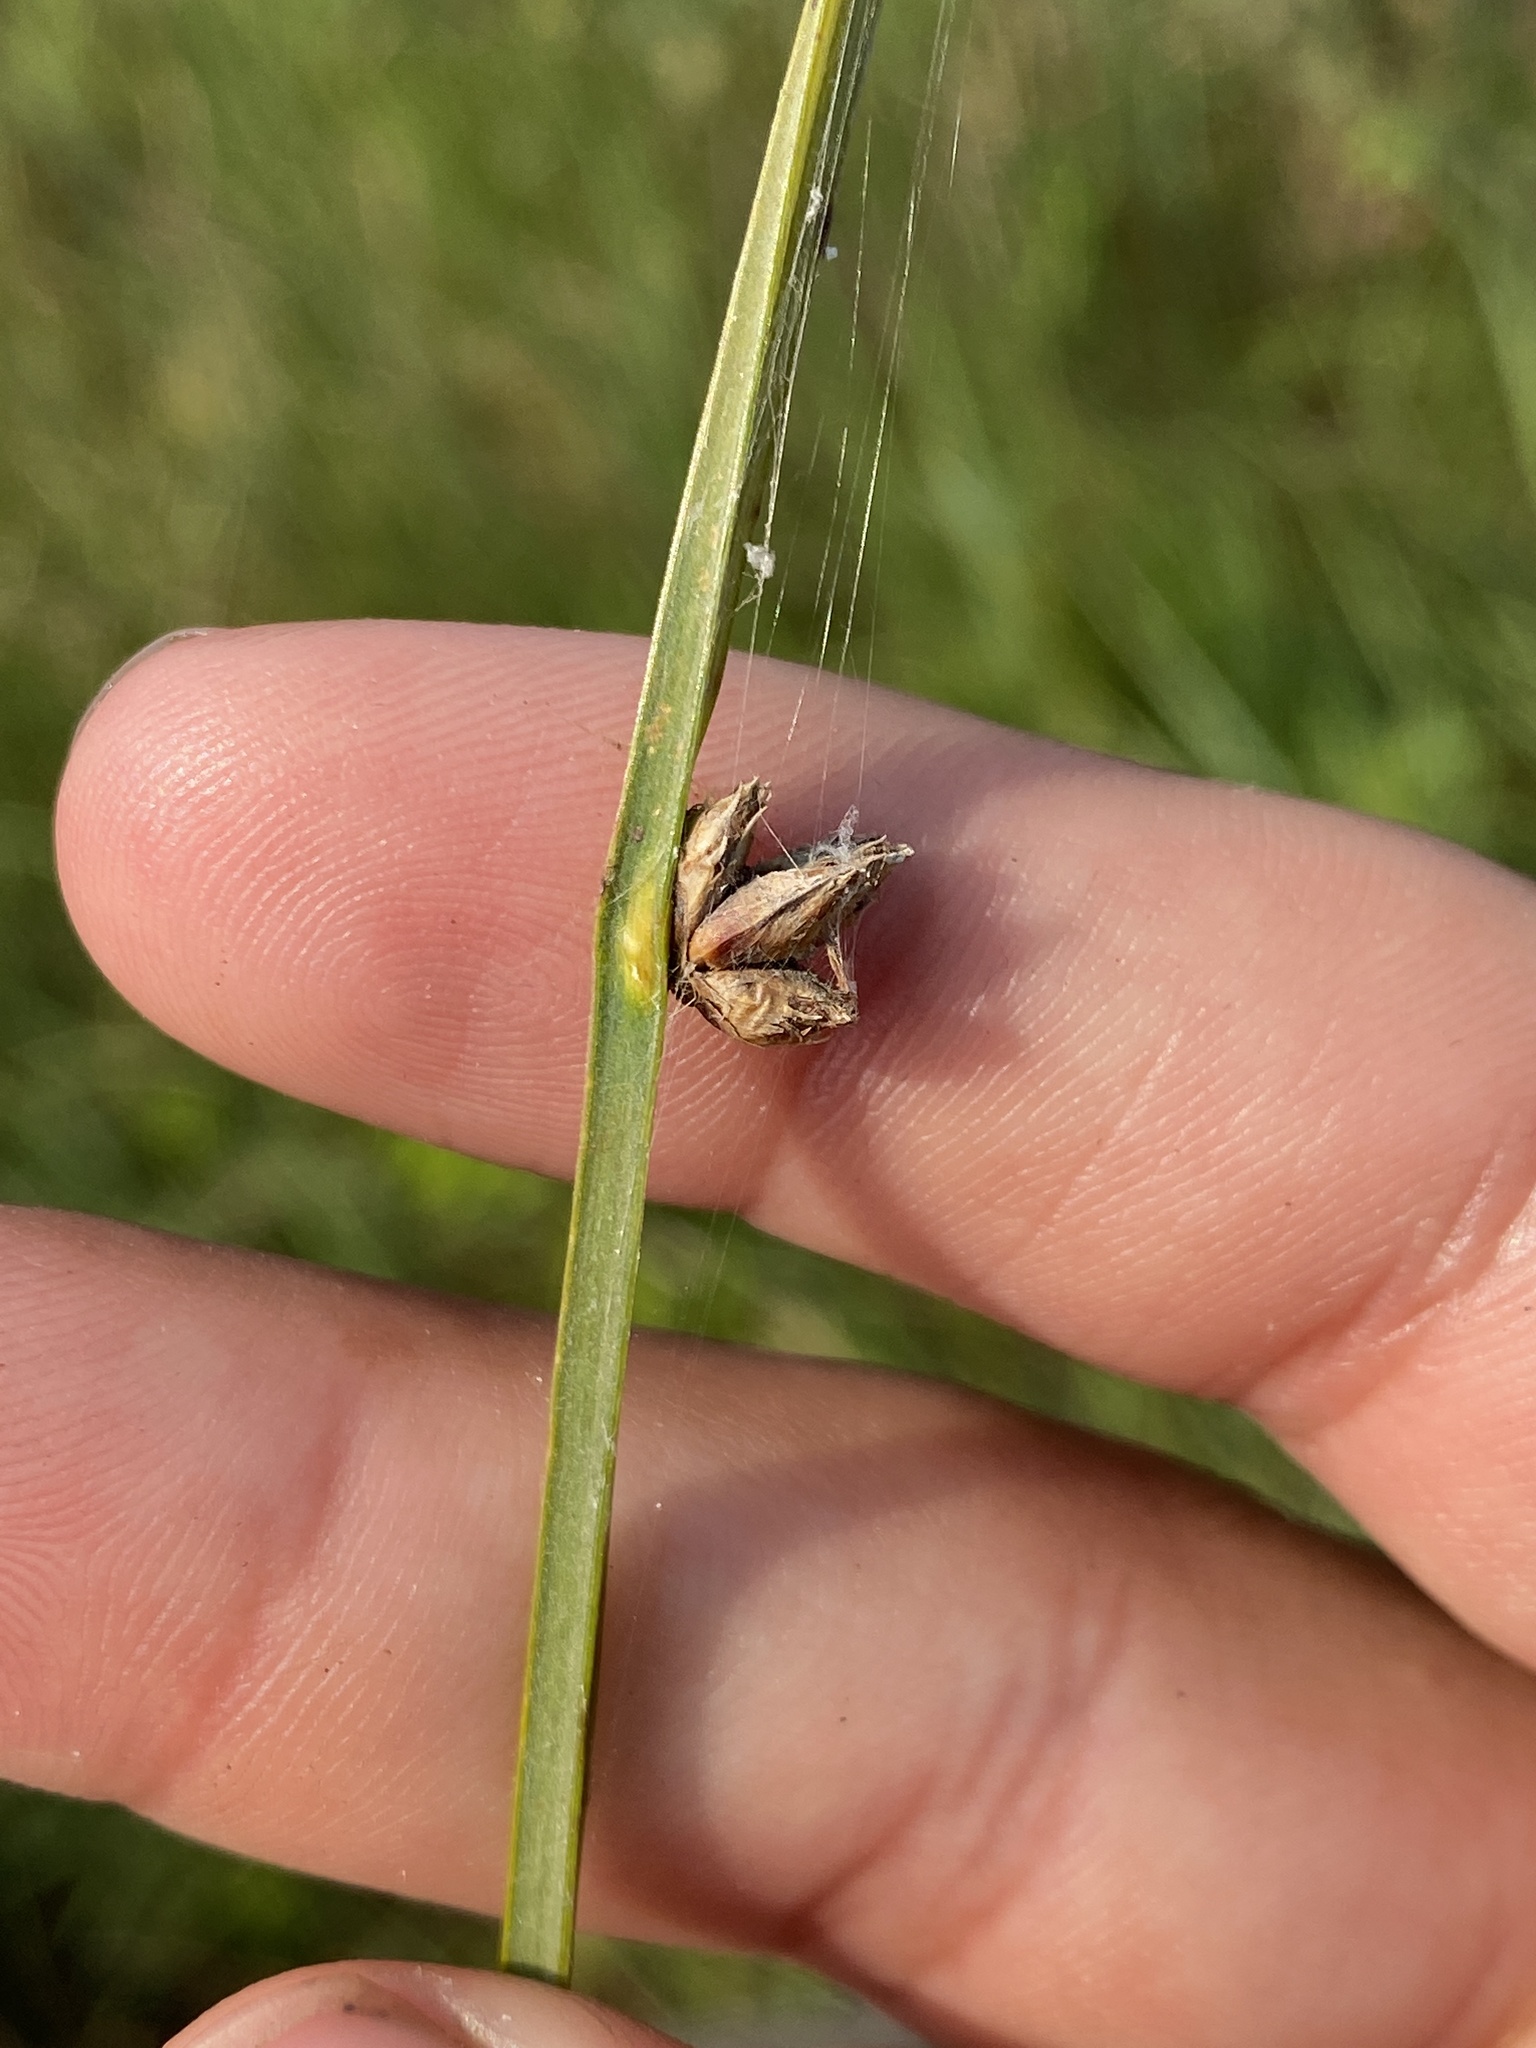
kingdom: Plantae
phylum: Tracheophyta
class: Liliopsida
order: Poales
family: Cyperaceae
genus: Schoenoplectus
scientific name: Schoenoplectus pungens
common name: Sharp club-rush
